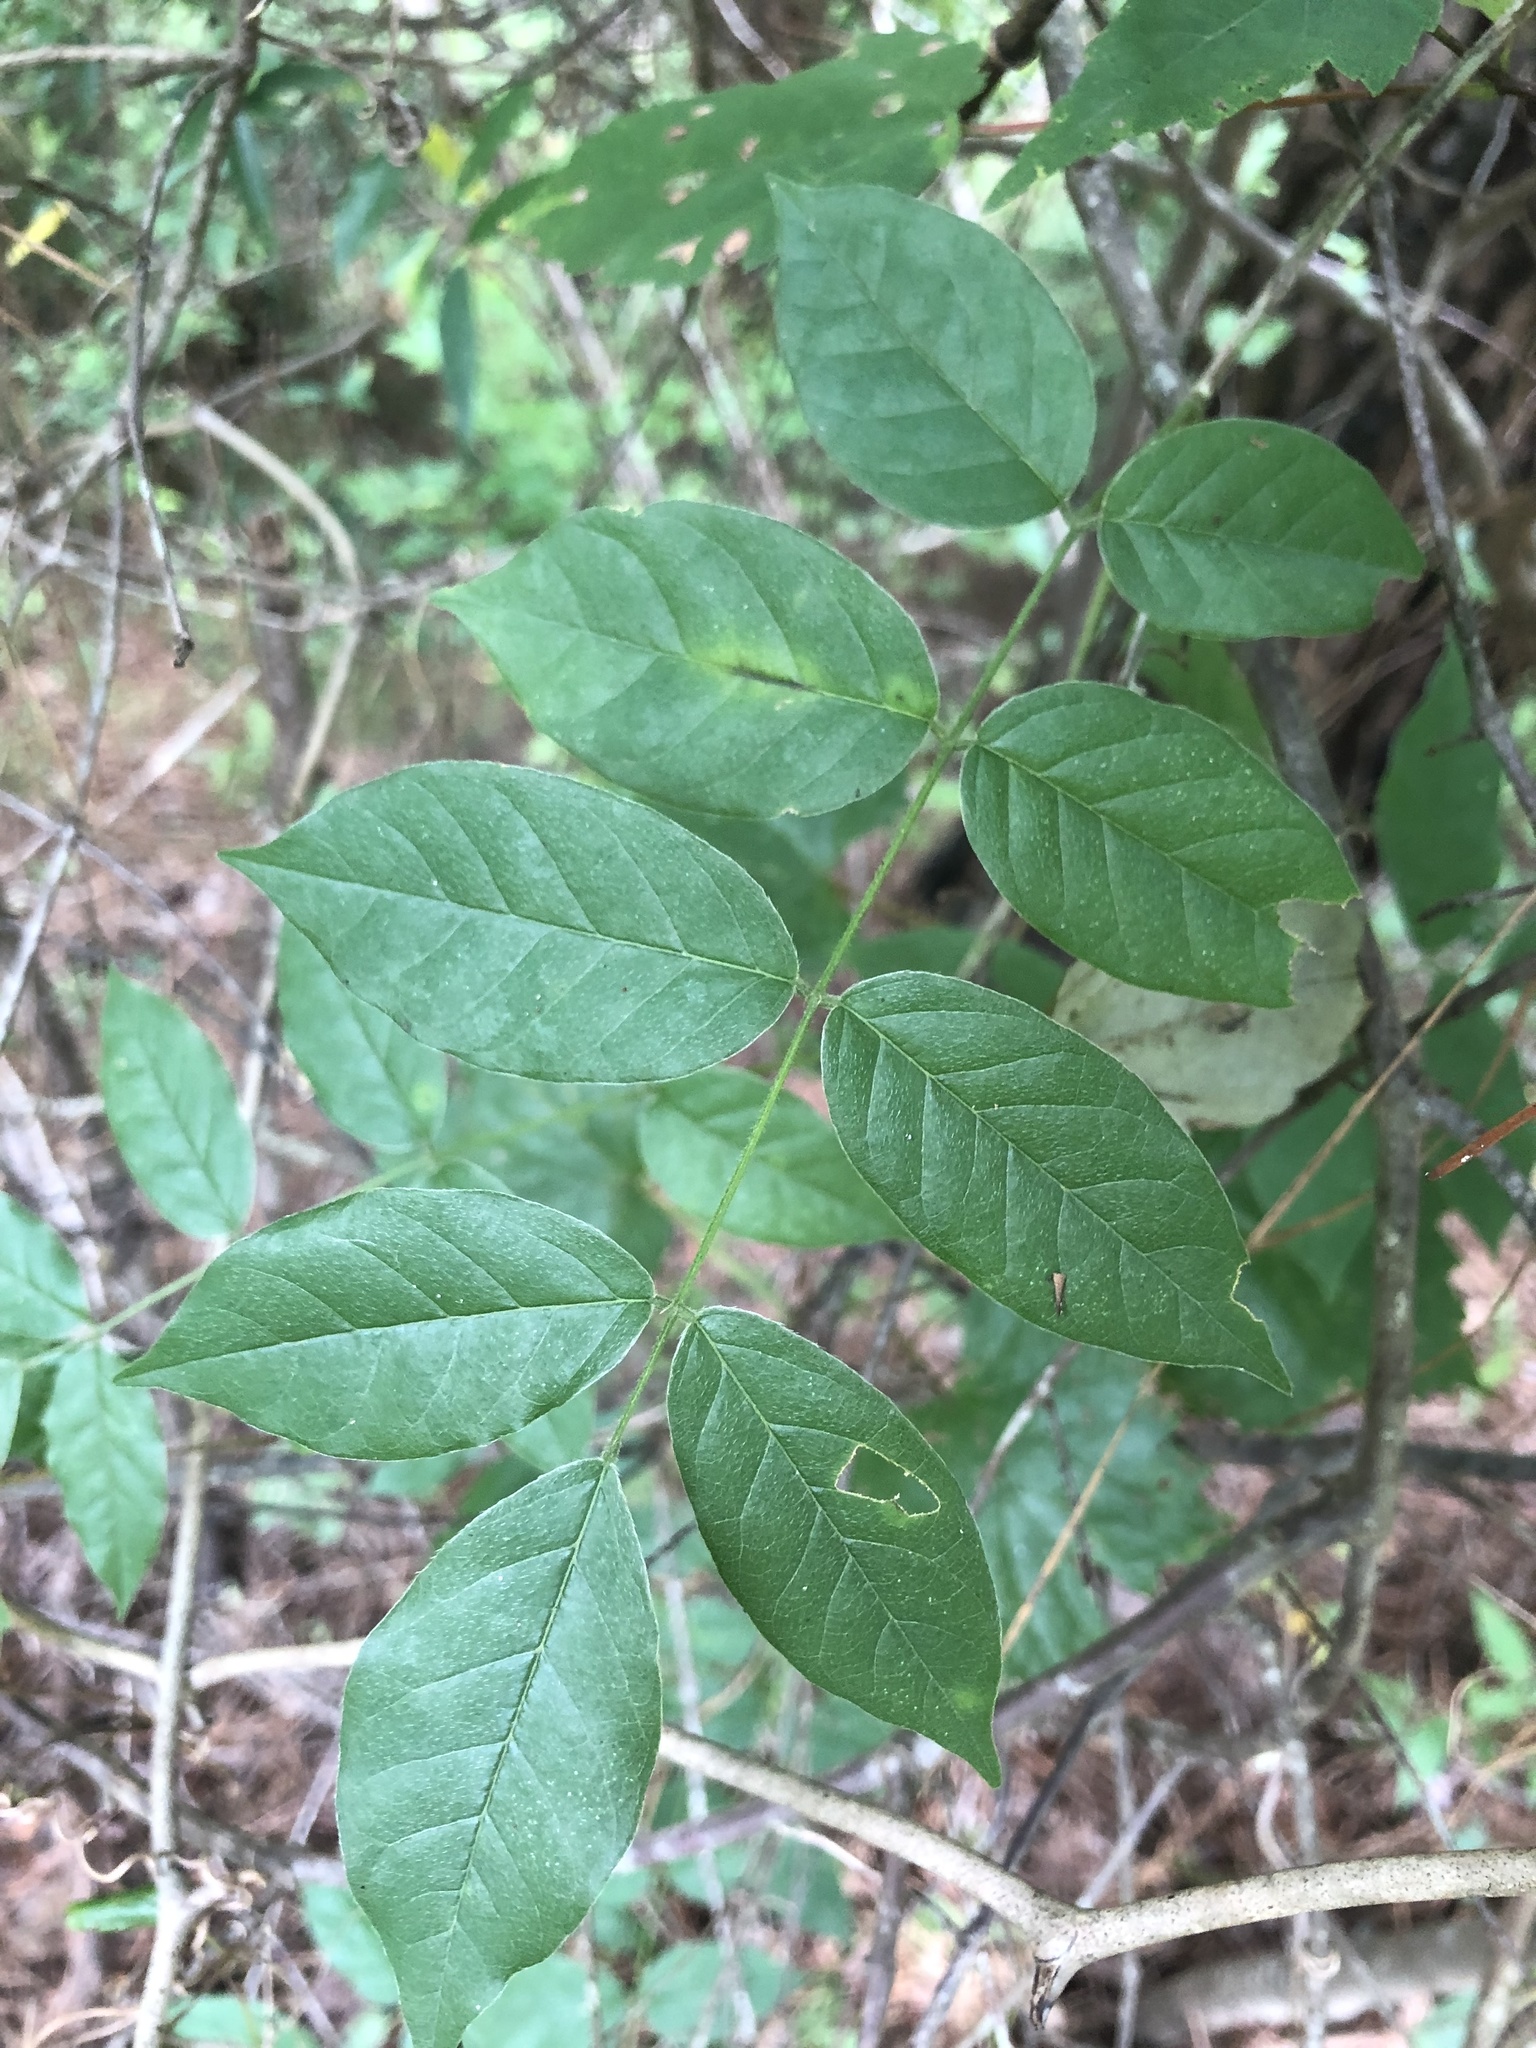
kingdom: Plantae
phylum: Tracheophyta
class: Magnoliopsida
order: Fabales
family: Fabaceae
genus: Wisteria
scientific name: Wisteria frutescens
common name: American wisteria
